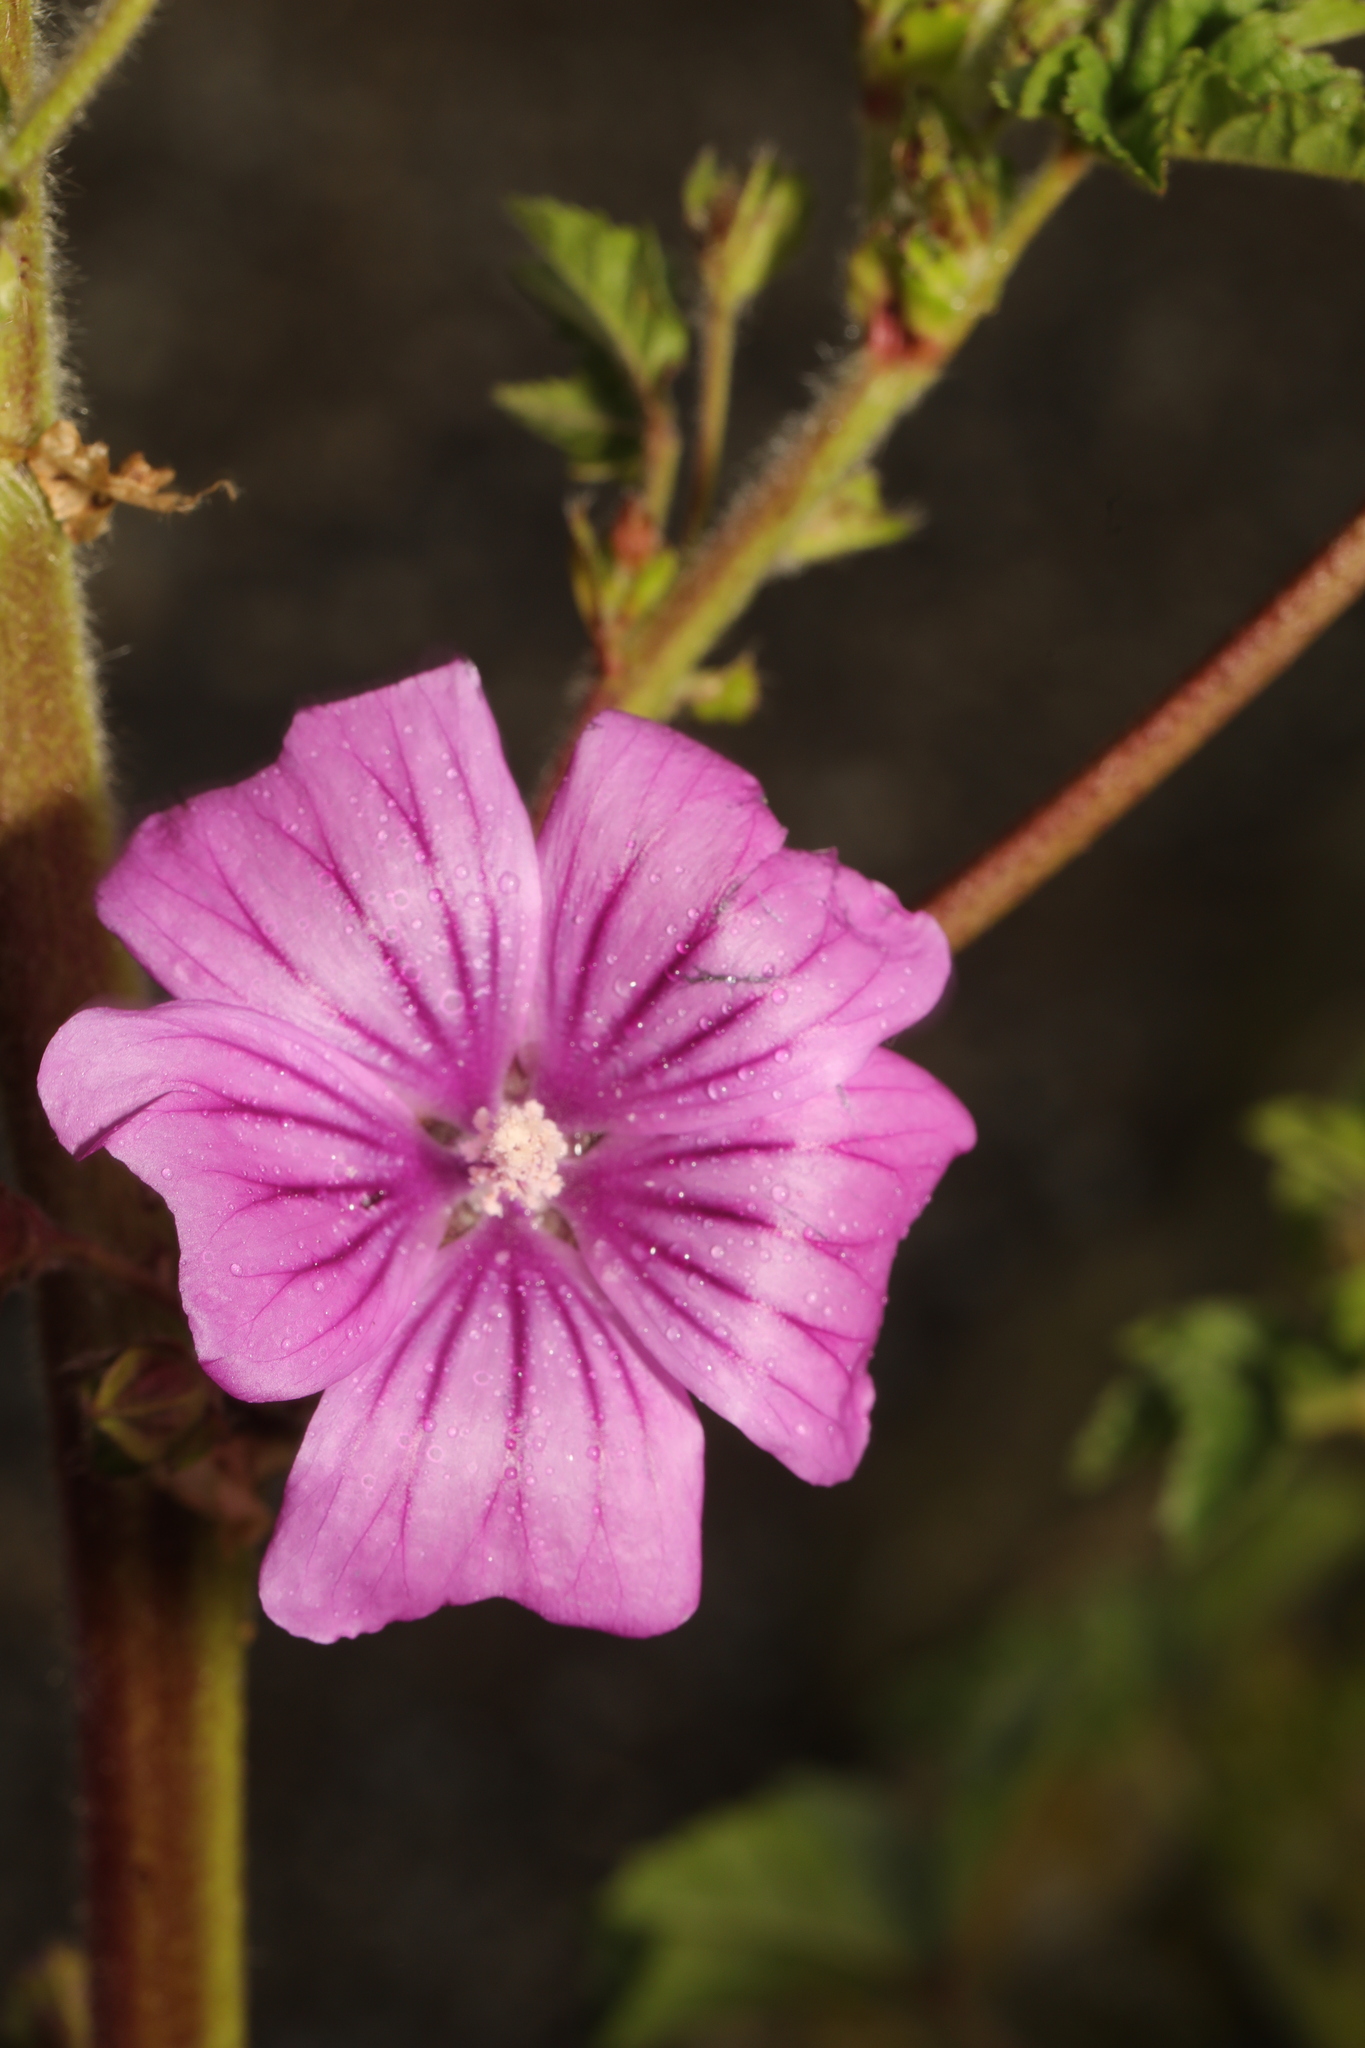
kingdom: Plantae
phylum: Tracheophyta
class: Magnoliopsida
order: Malvales
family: Malvaceae
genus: Malva
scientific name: Malva sylvestris
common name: Common mallow
